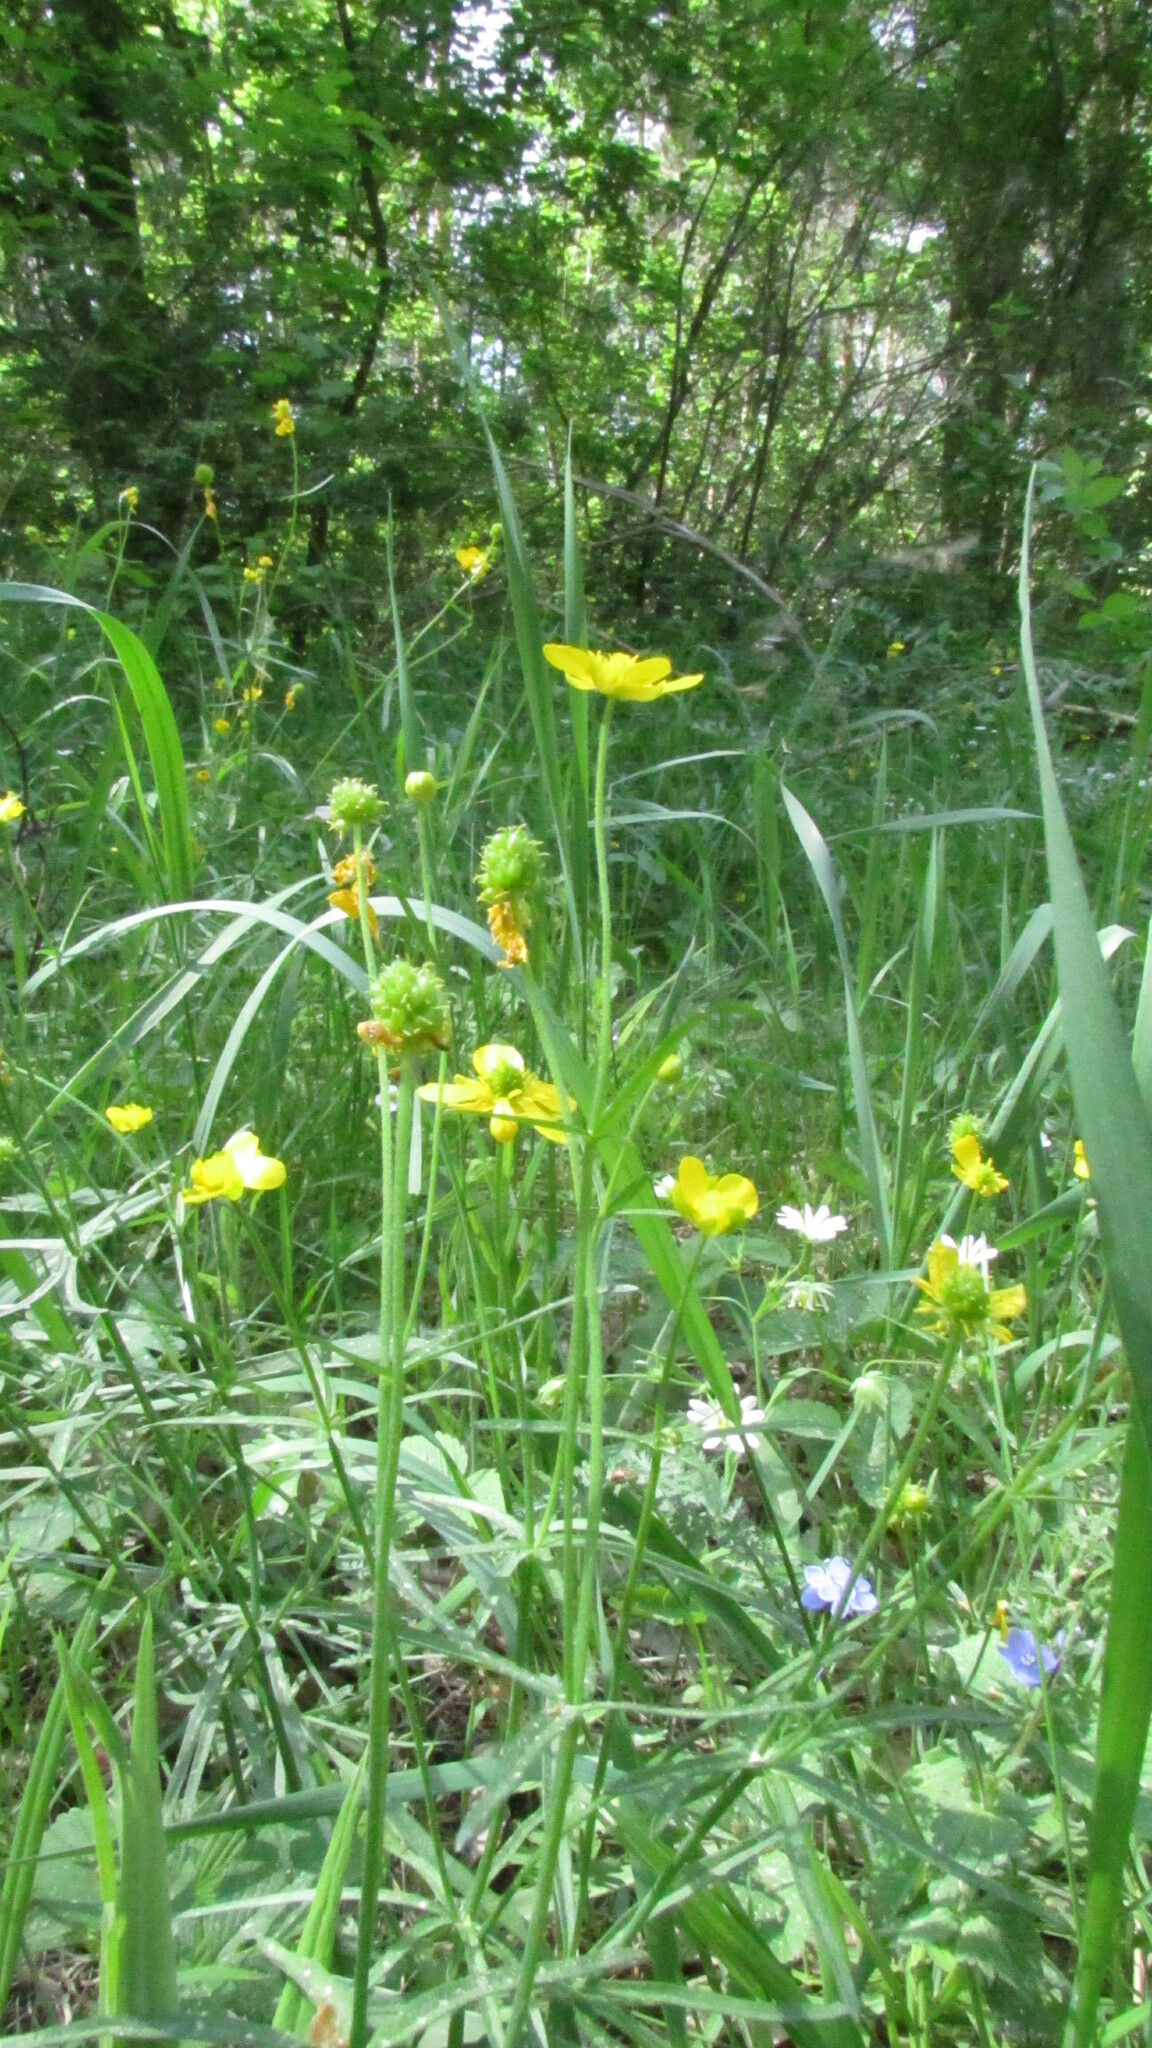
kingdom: Plantae
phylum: Tracheophyta
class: Magnoliopsida
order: Ranunculales
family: Ranunculaceae
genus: Ranunculus
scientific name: Ranunculus auricomus
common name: Goldilocks buttercup
